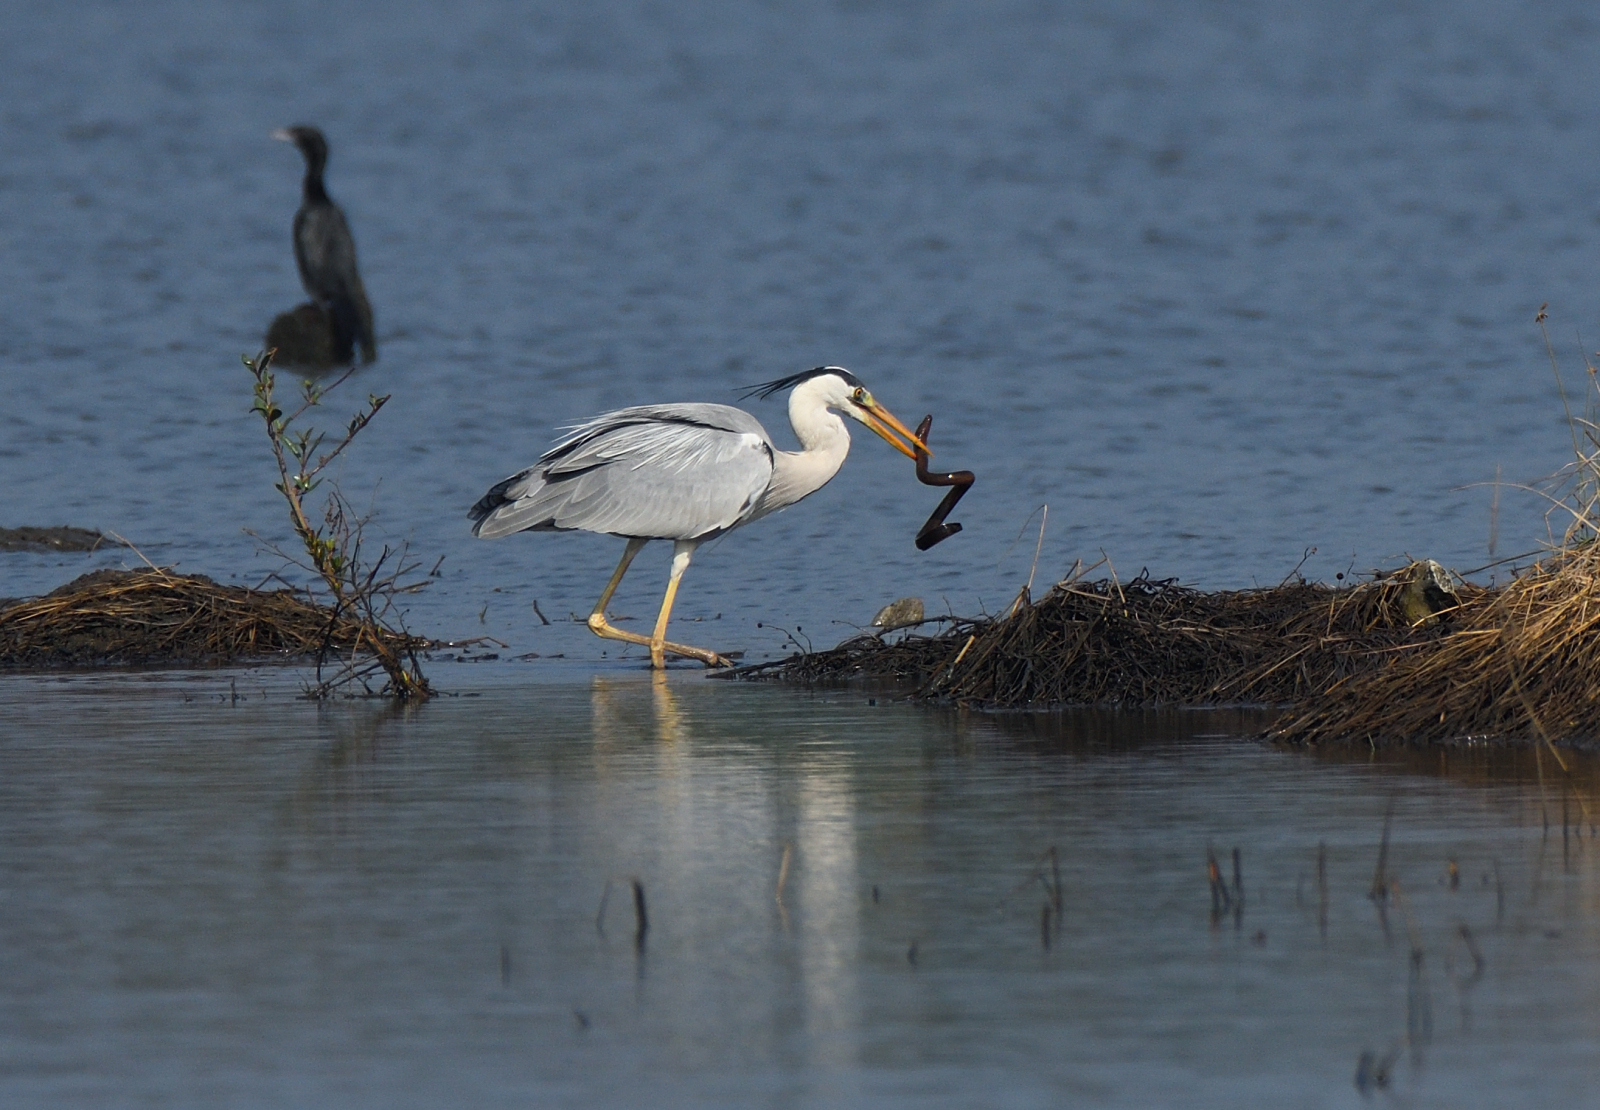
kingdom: Animalia
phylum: Chordata
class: Aves
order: Pelecaniformes
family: Ardeidae
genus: Ardea
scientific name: Ardea cinerea
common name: Grey heron
